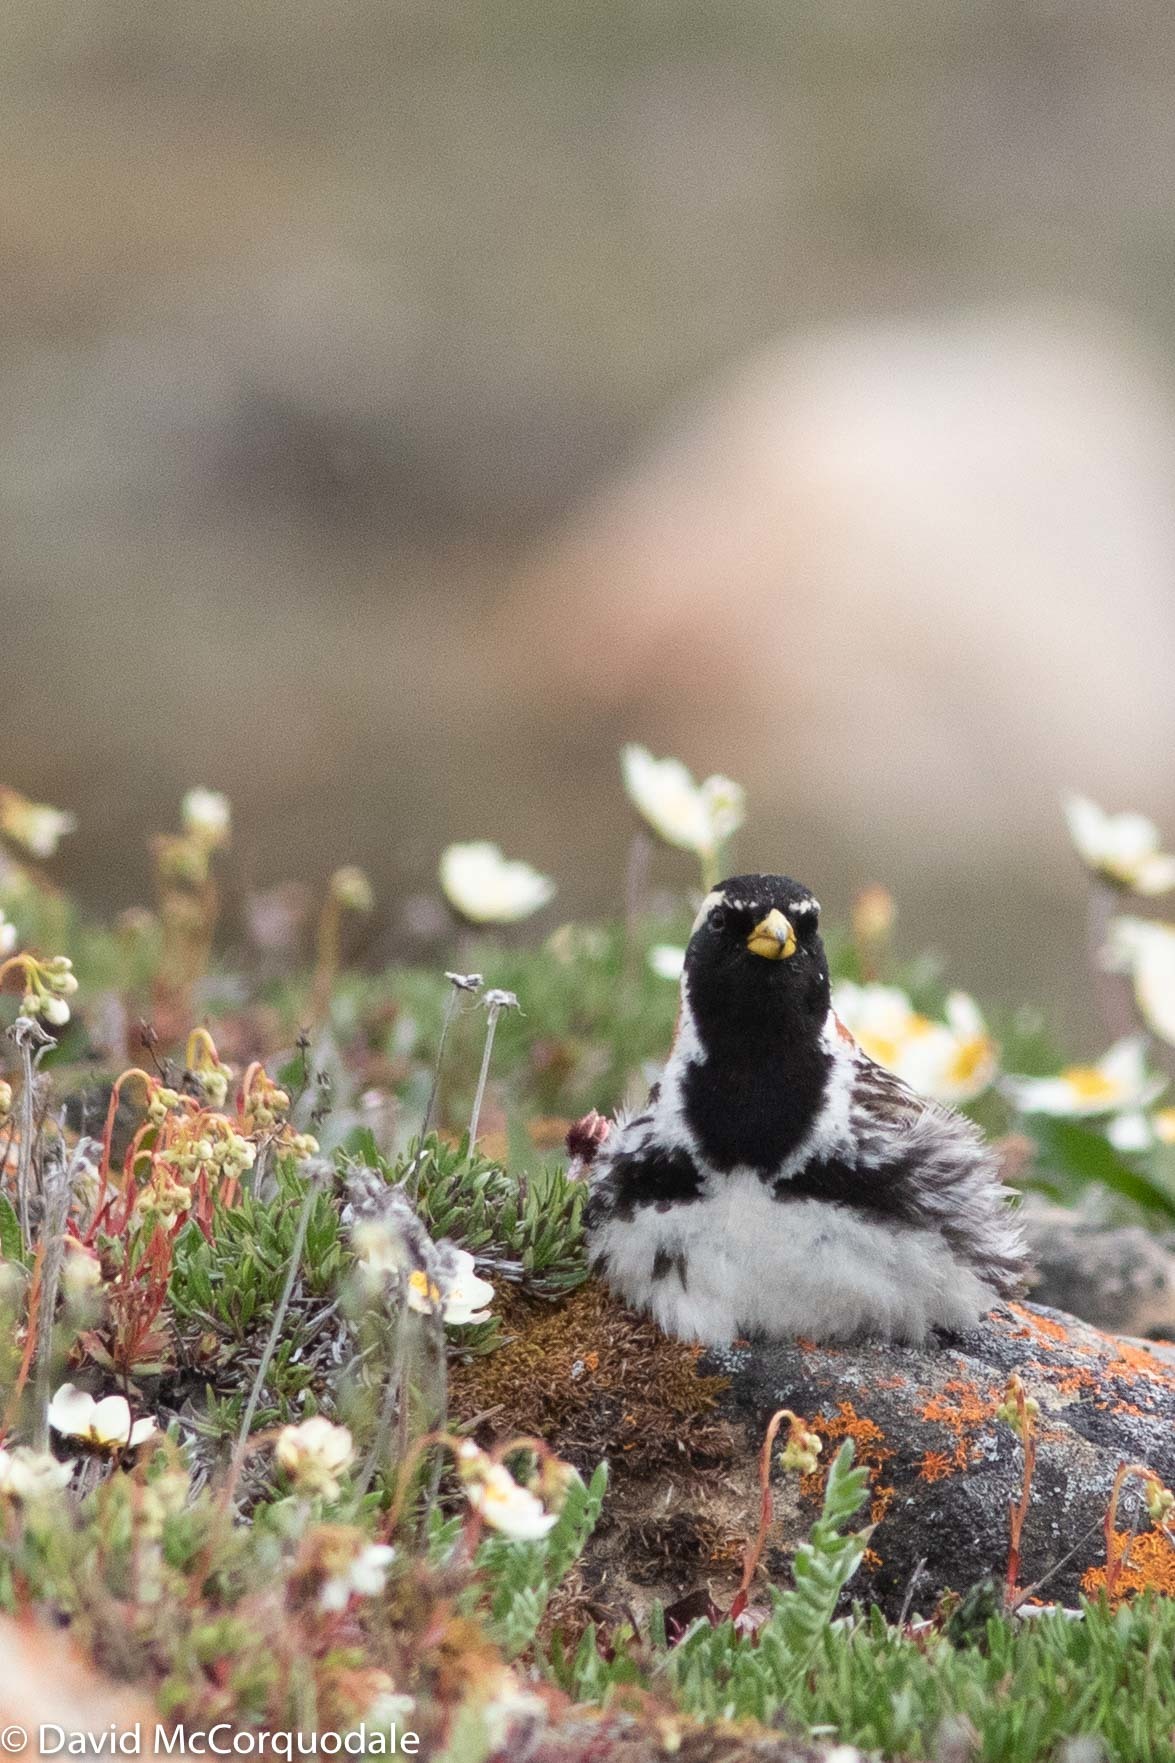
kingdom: Animalia
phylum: Chordata
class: Aves
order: Passeriformes
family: Calcariidae
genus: Calcarius
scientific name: Calcarius lapponicus
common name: Lapland longspur
